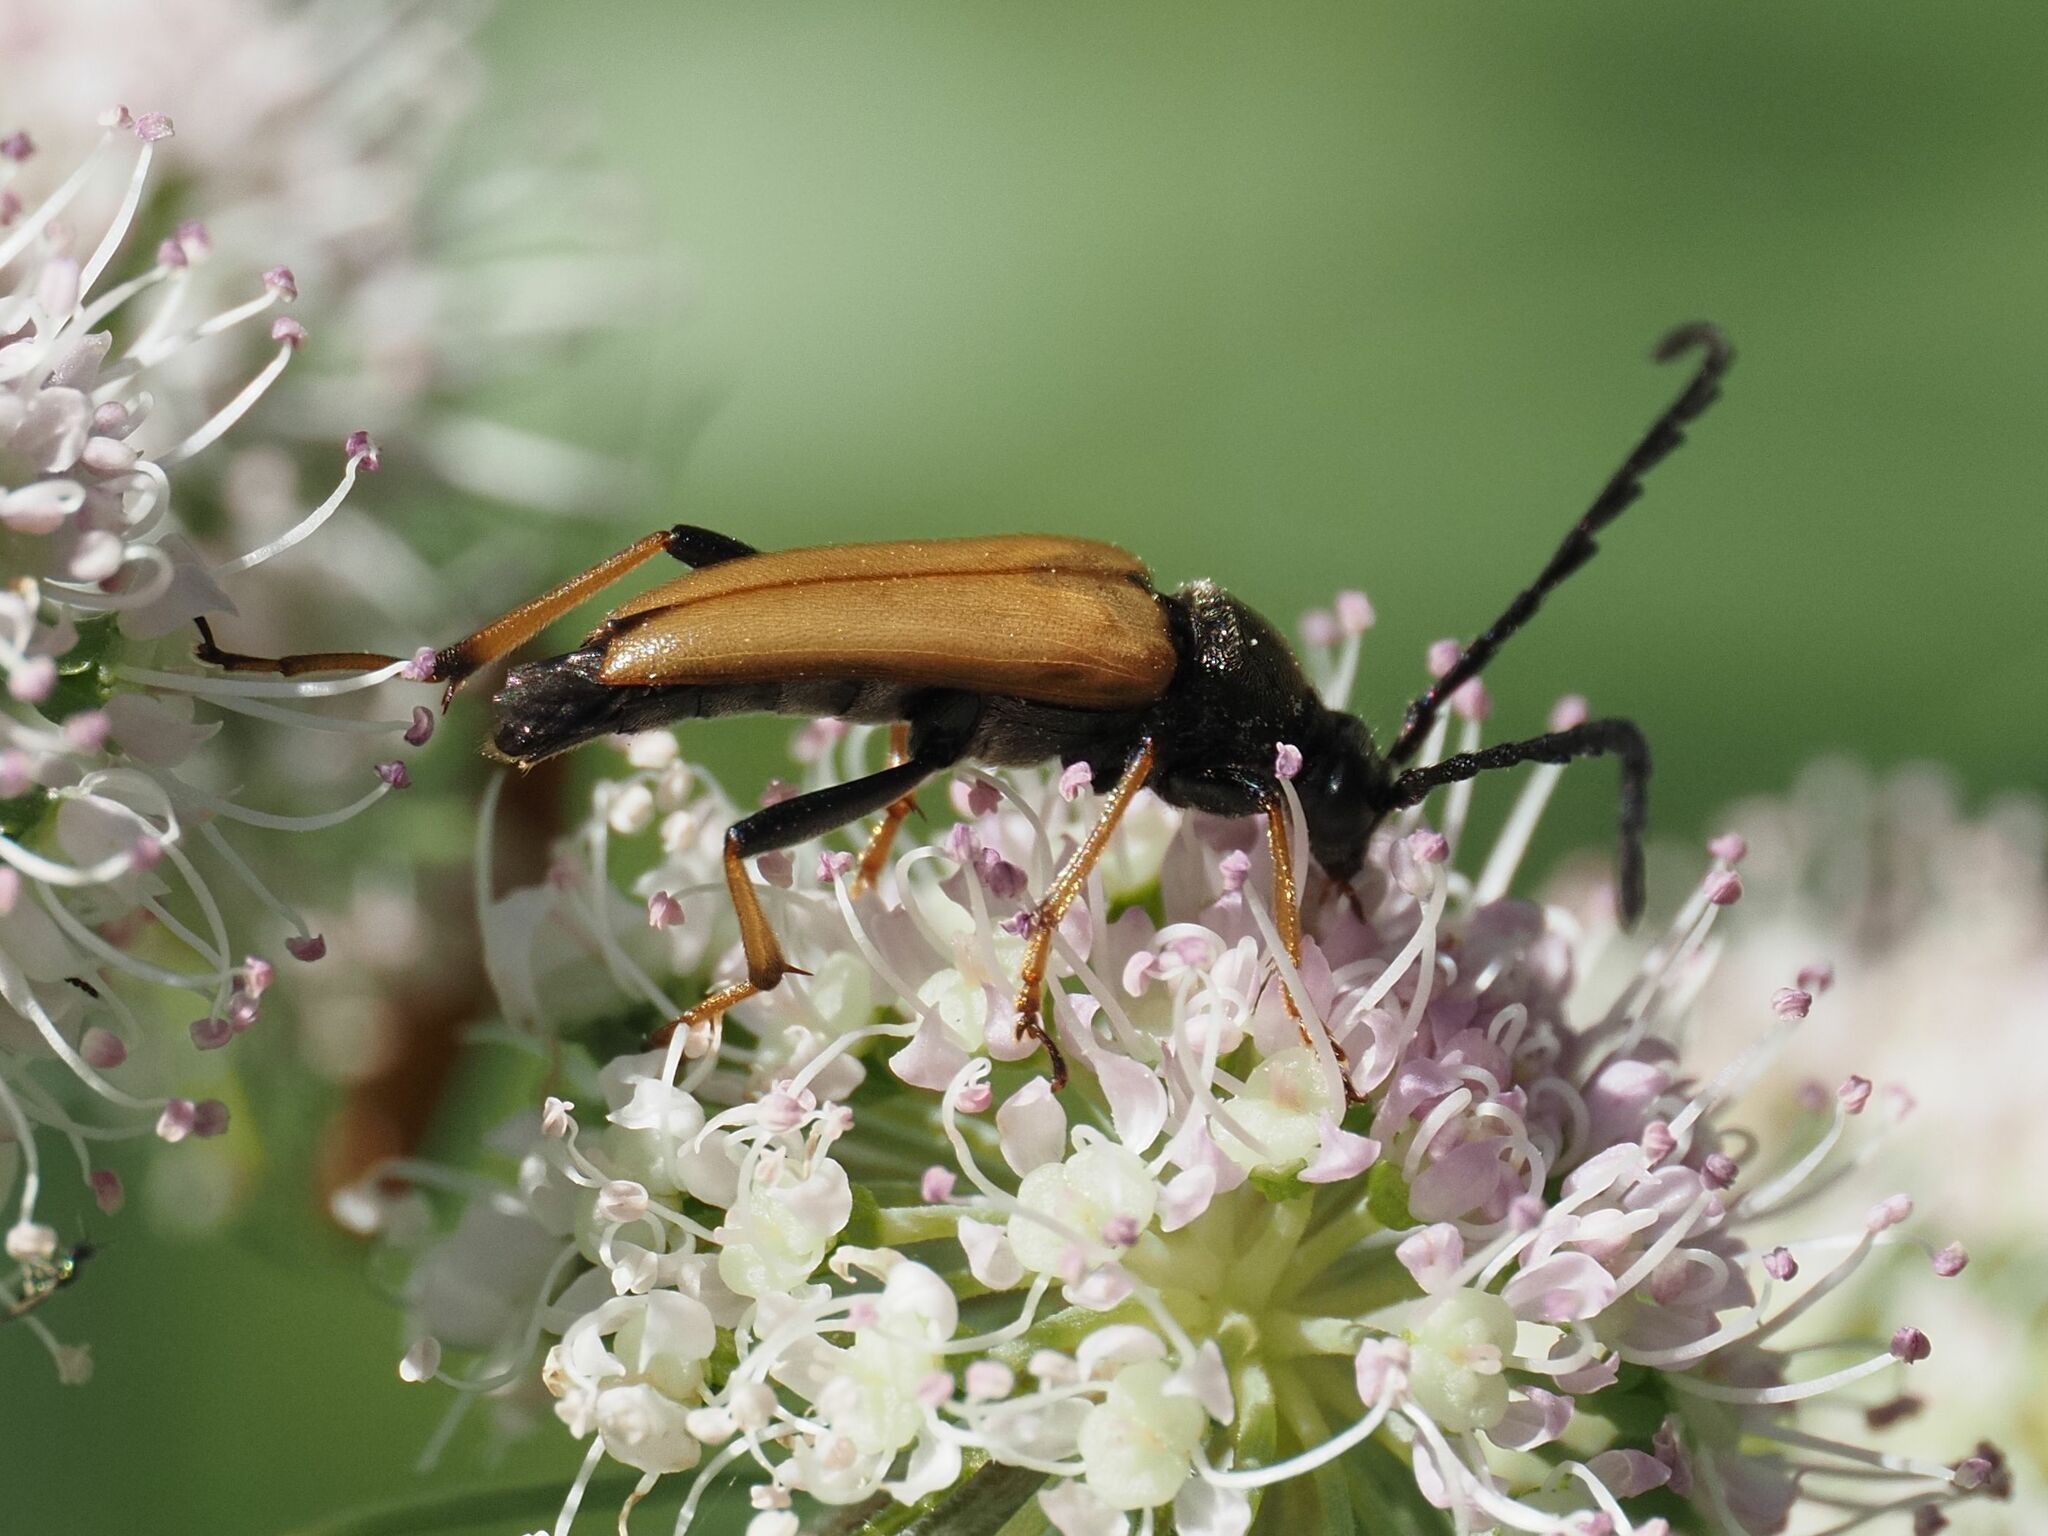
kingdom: Animalia
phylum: Arthropoda
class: Insecta
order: Coleoptera
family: Cerambycidae
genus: Stictoleptura
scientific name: Stictoleptura rubra
